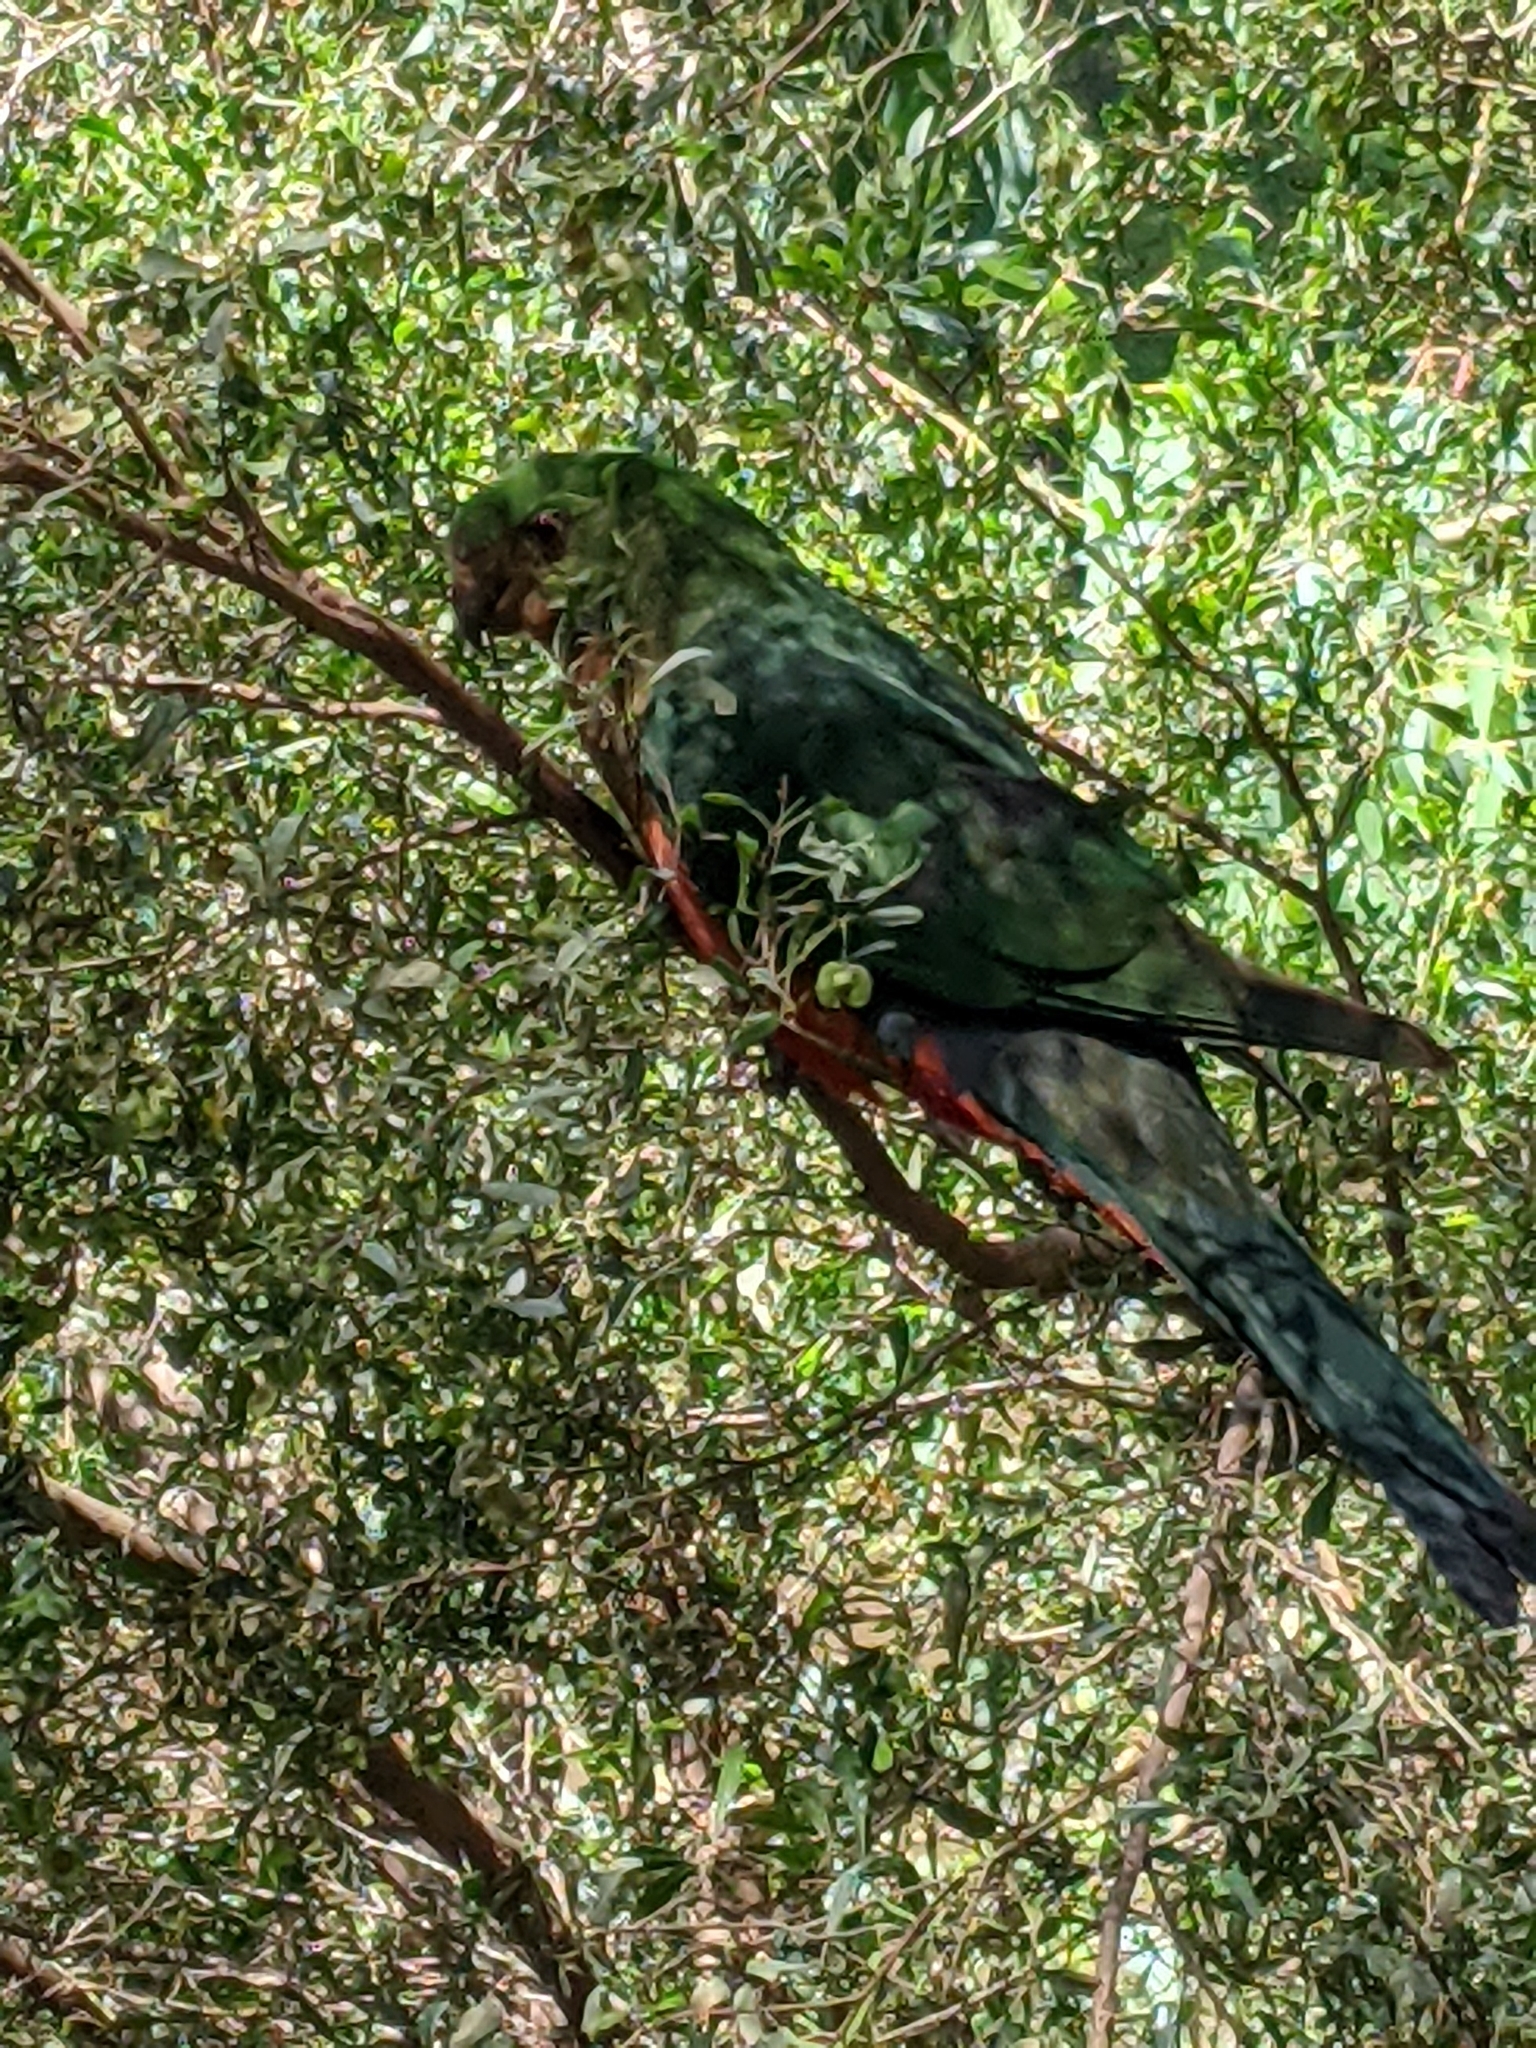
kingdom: Animalia
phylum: Chordata
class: Aves
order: Psittaciformes
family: Psittacidae
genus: Alisterus
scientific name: Alisterus scapularis
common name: Australian king parrot
